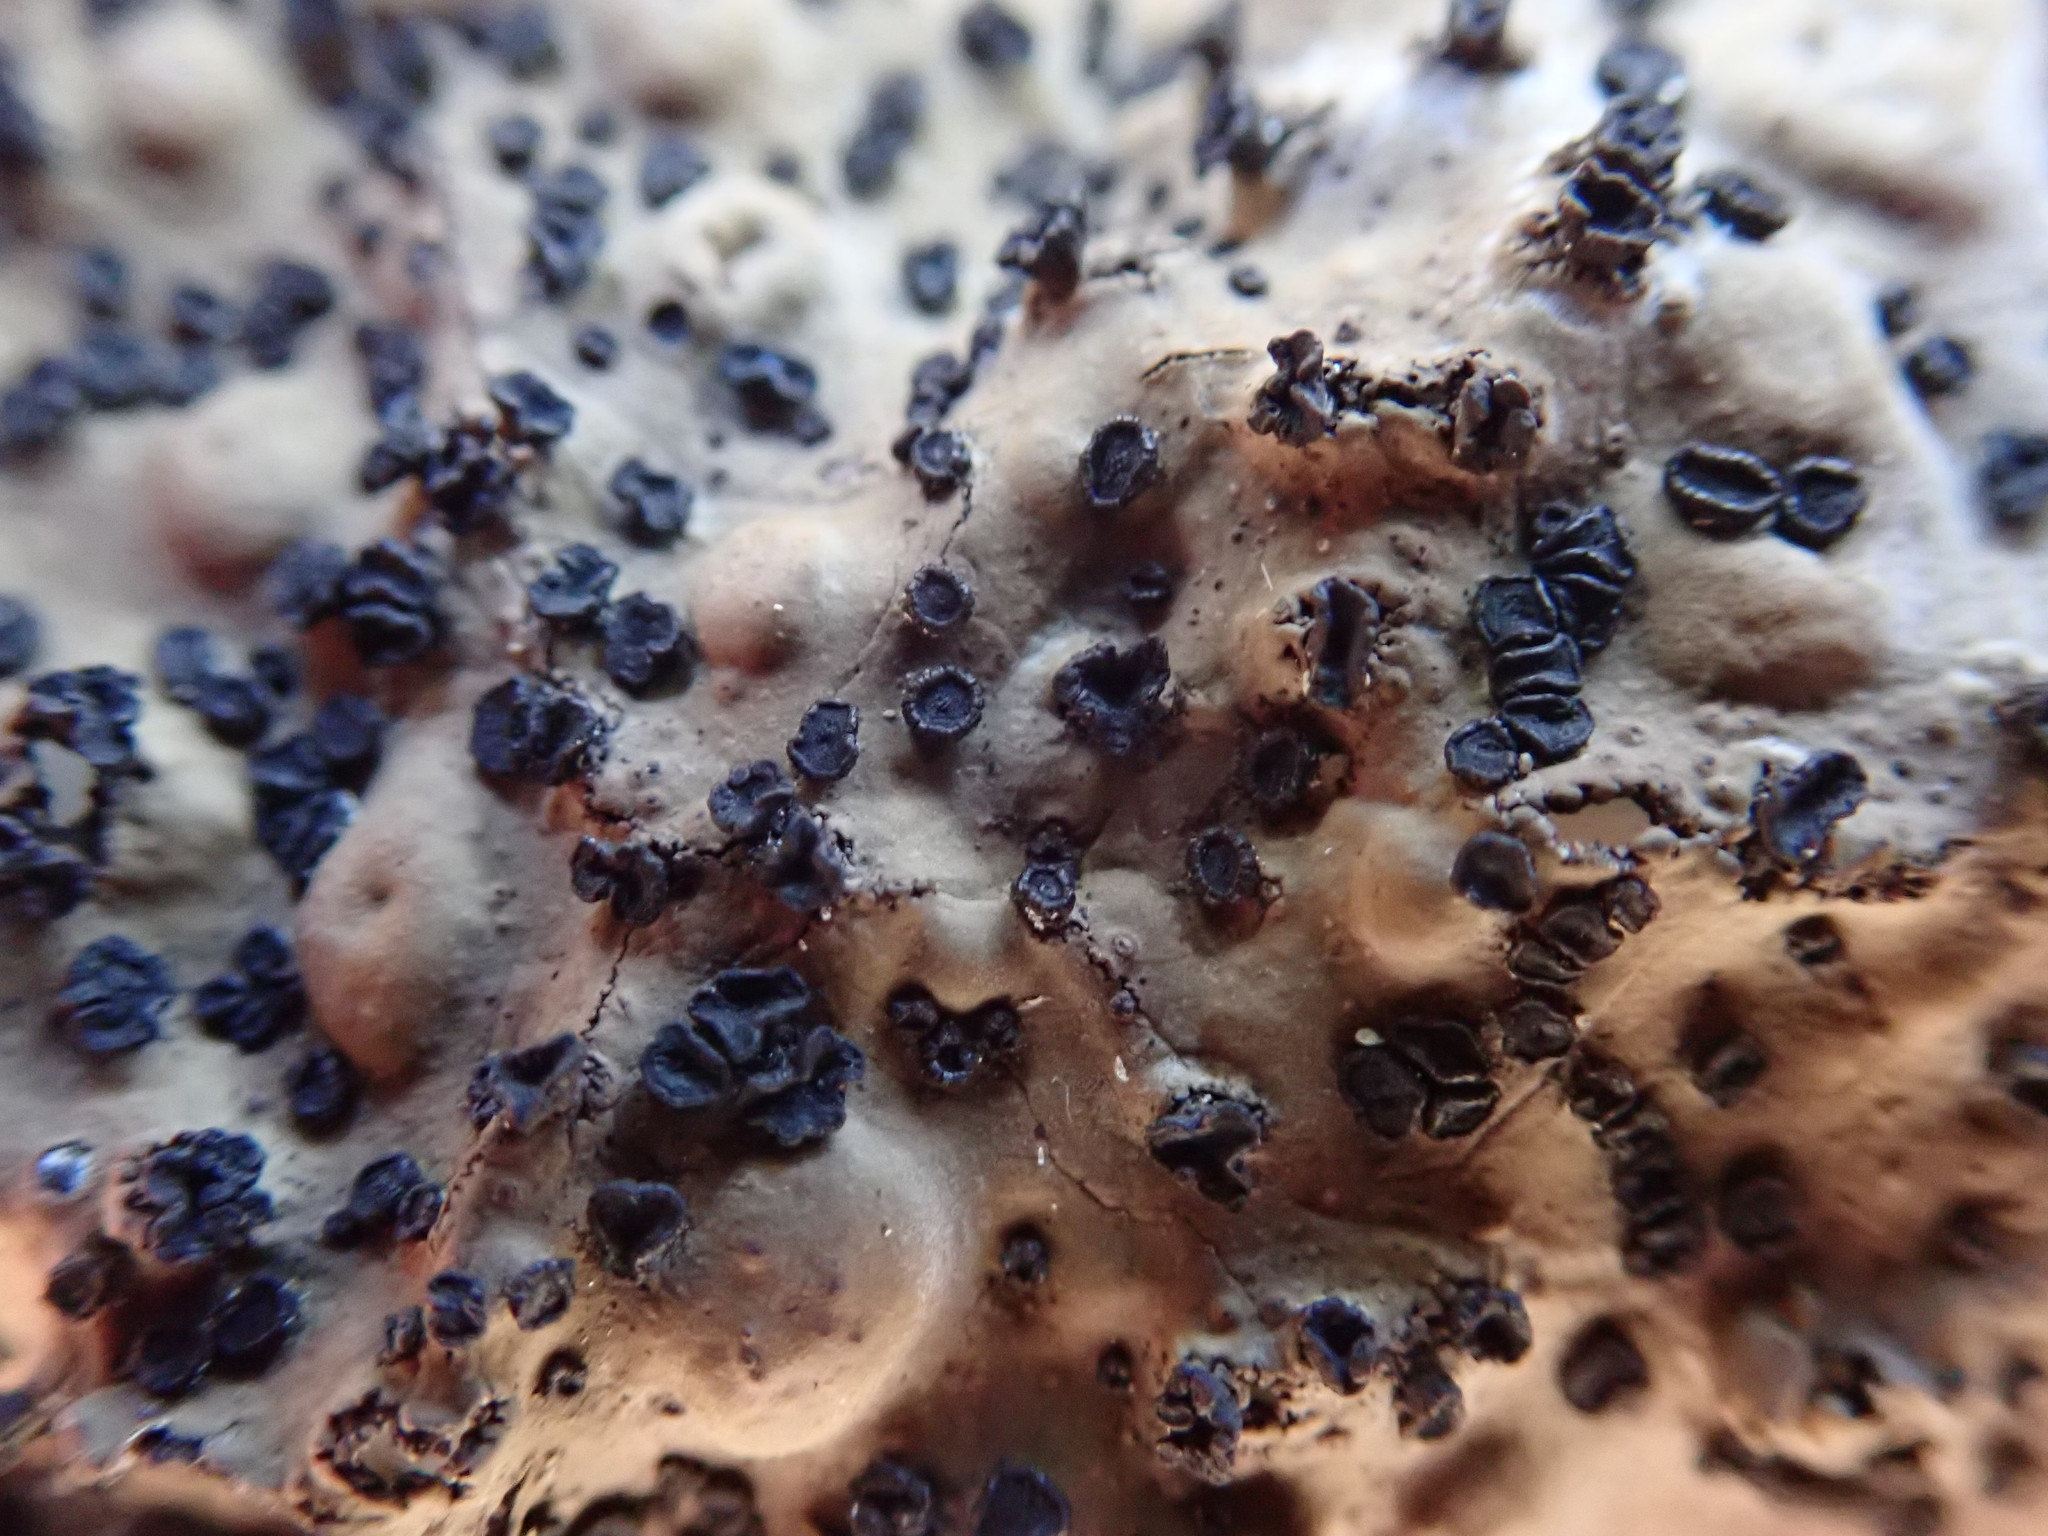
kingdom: Fungi
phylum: Ascomycota
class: Lecanoromycetes
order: Umbilicariales
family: Umbilicariaceae
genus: Lasallia
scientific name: Lasallia papulosa
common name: Common toadskin lichen
